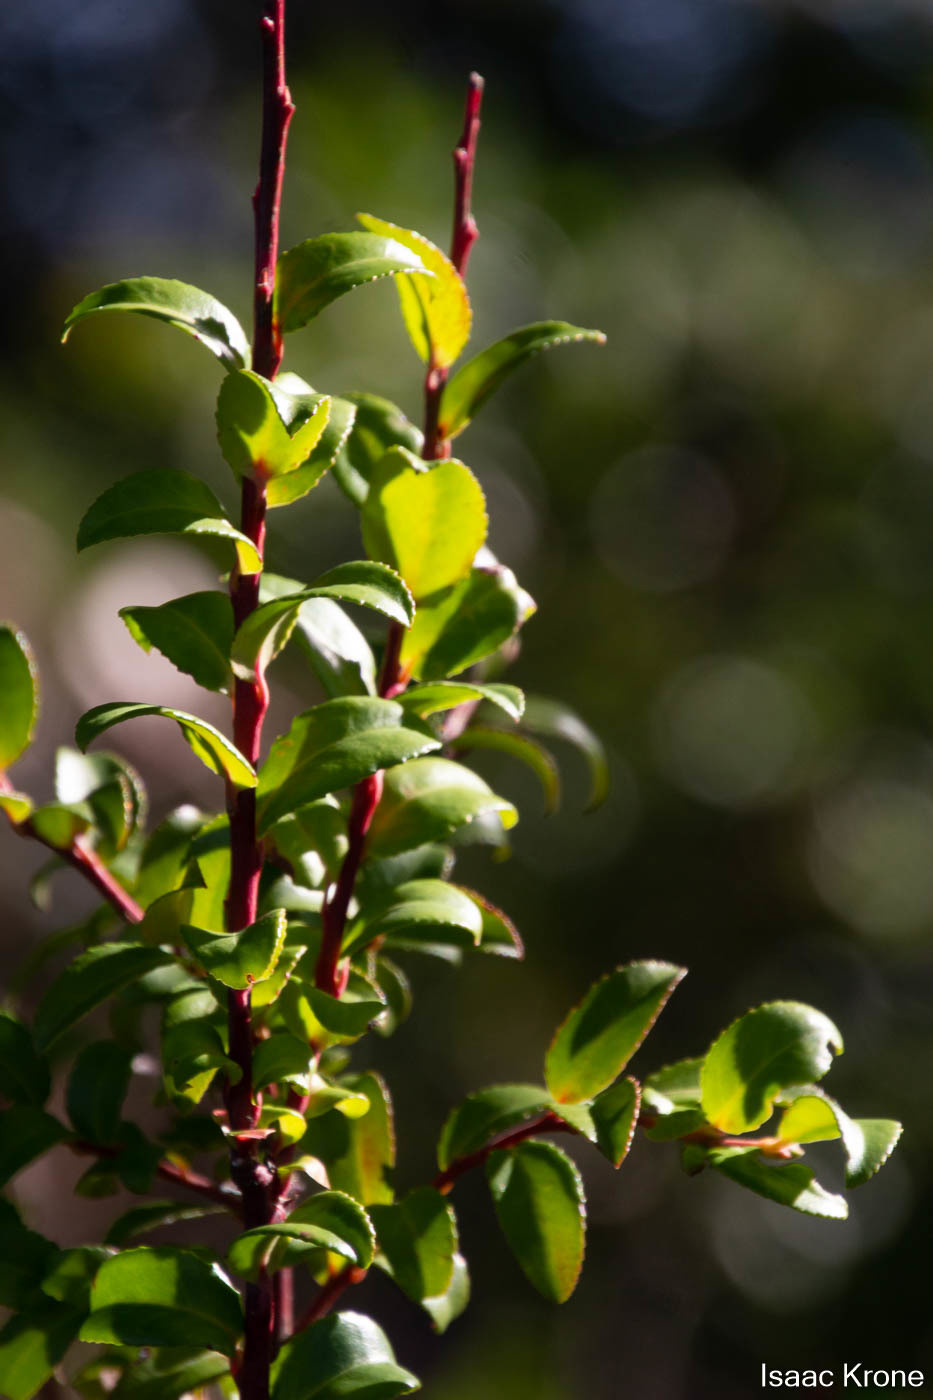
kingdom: Plantae
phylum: Tracheophyta
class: Magnoliopsida
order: Ericales
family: Ericaceae
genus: Vaccinium
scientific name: Vaccinium ovatum
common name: California-huckleberry
